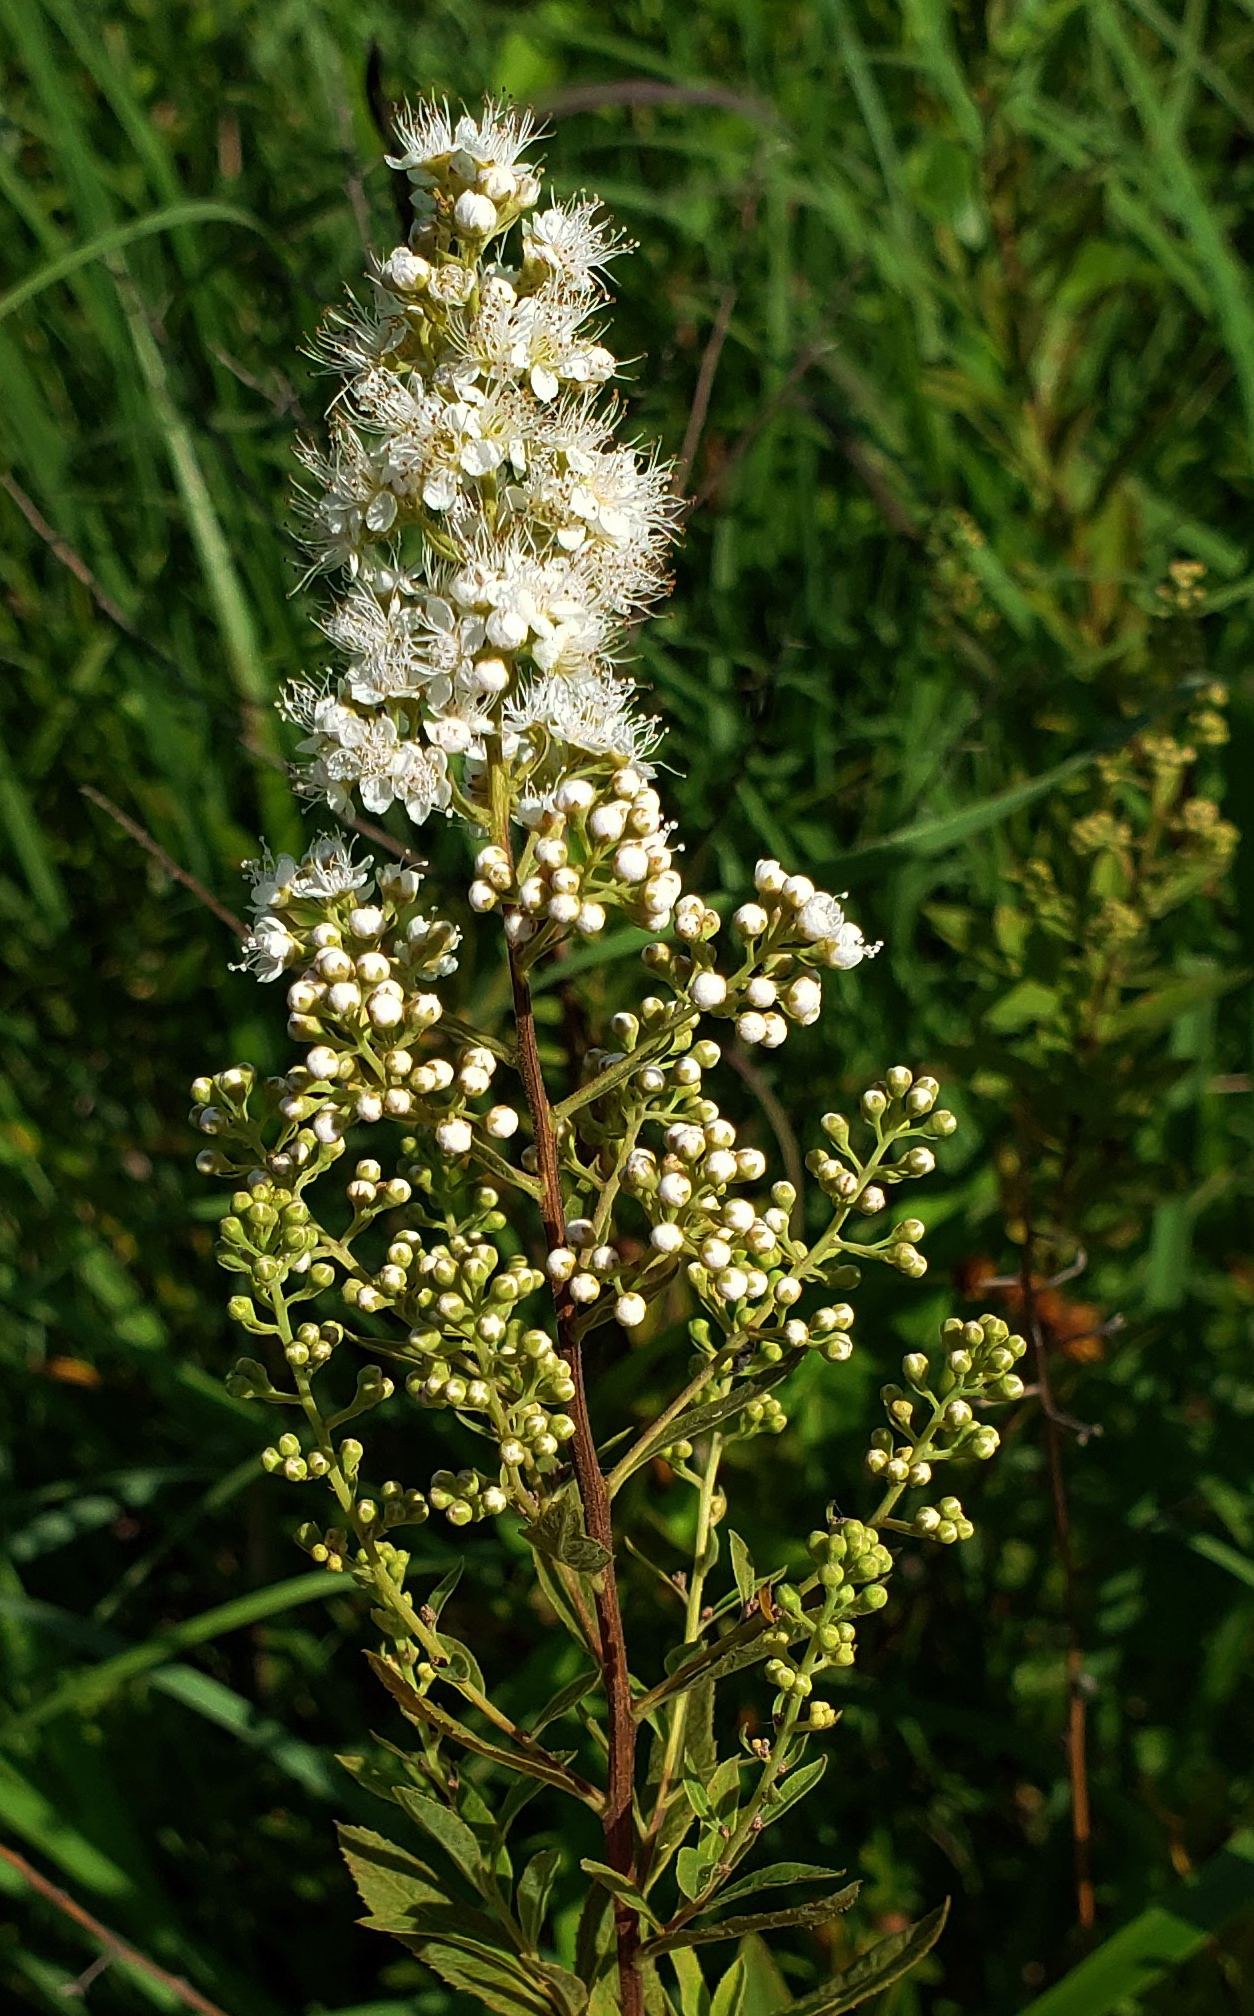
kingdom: Plantae
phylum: Tracheophyta
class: Magnoliopsida
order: Rosales
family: Rosaceae
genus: Spiraea
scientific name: Spiraea alba
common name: Pale bridewort
